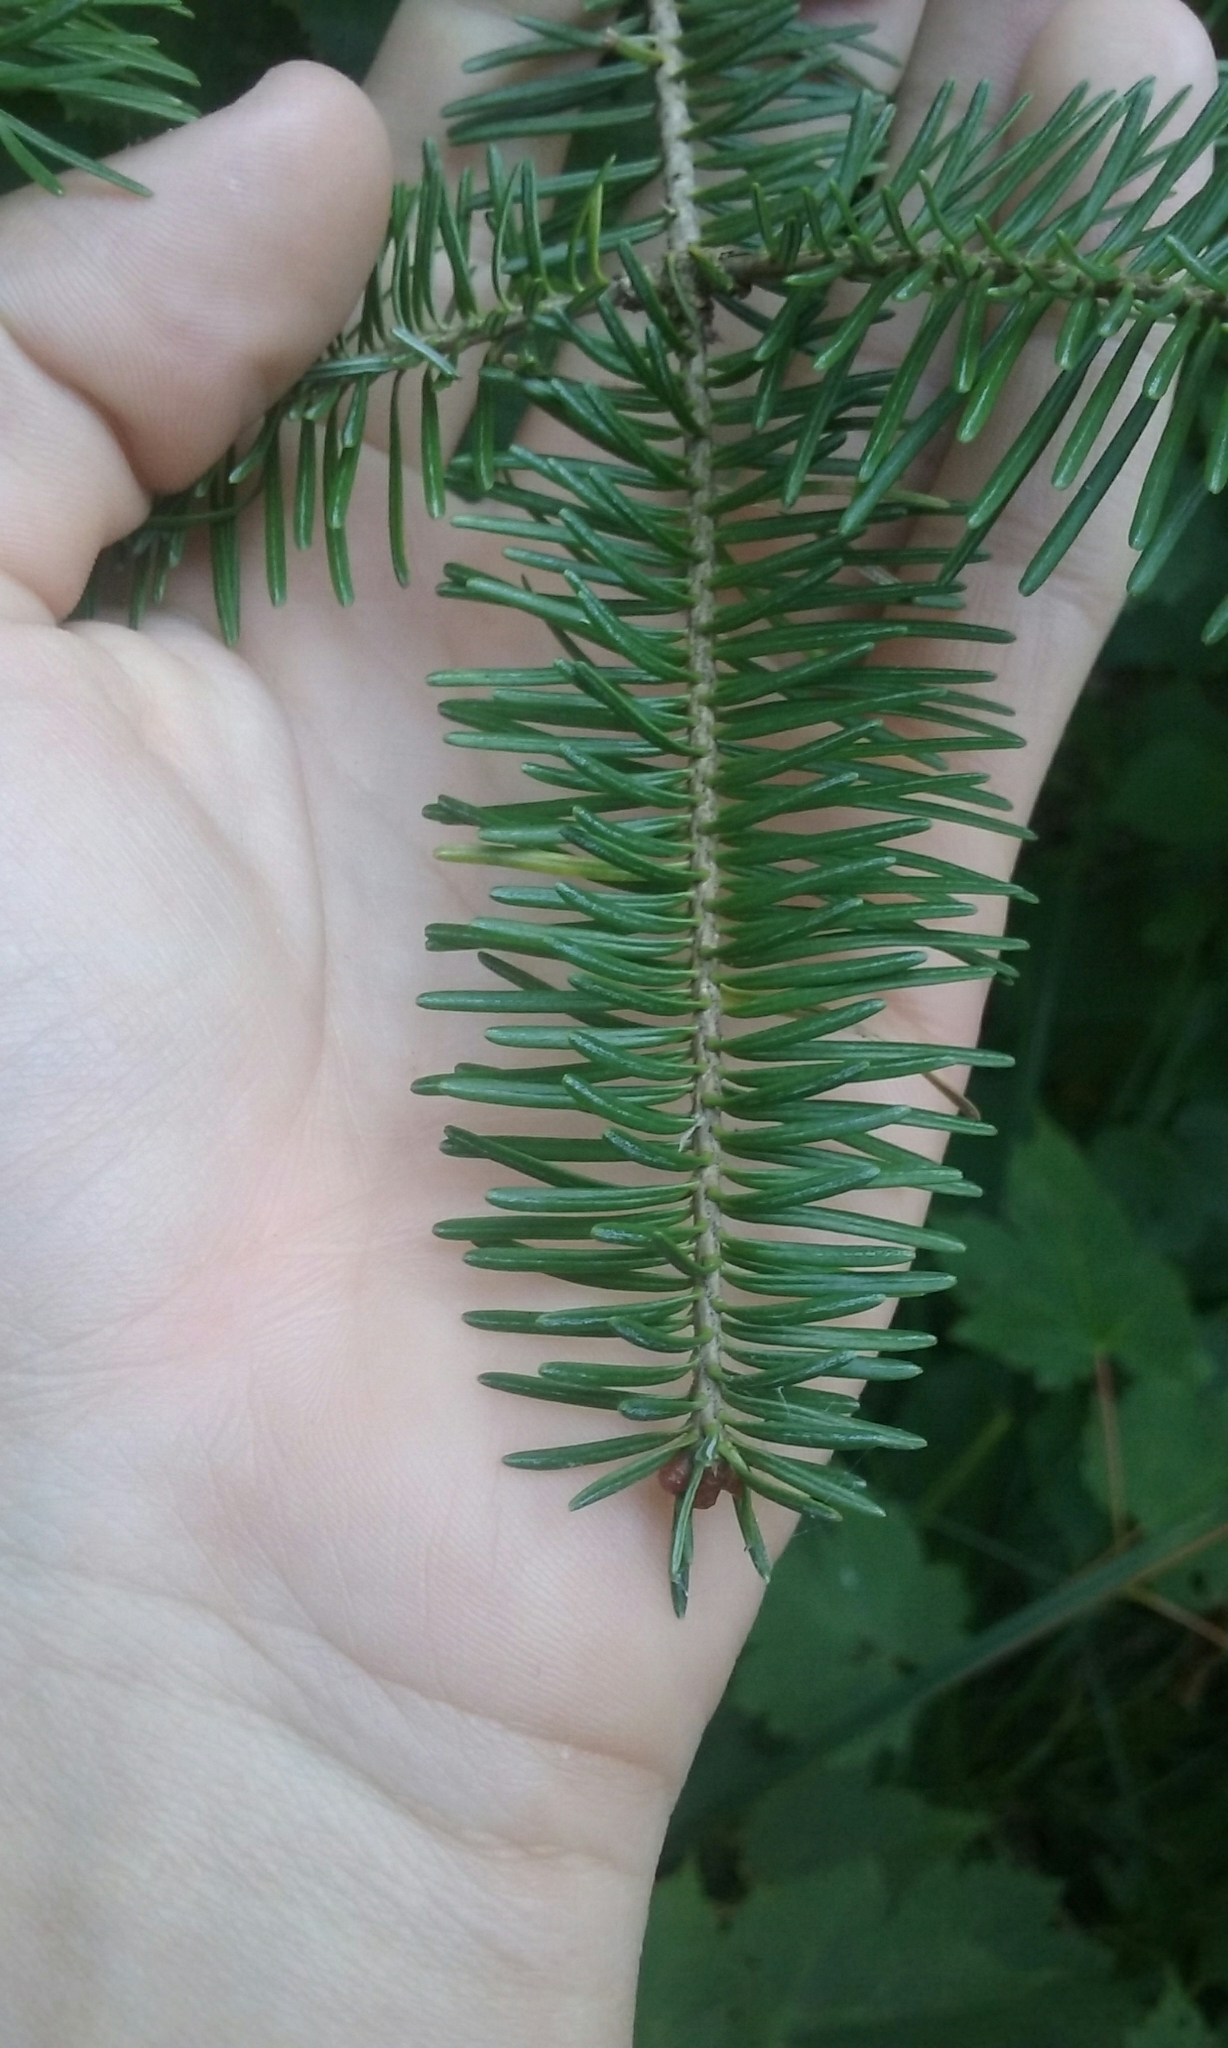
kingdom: Plantae
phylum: Tracheophyta
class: Pinopsida
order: Pinales
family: Pinaceae
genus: Abies
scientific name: Abies balsamea
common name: Balsam fir
